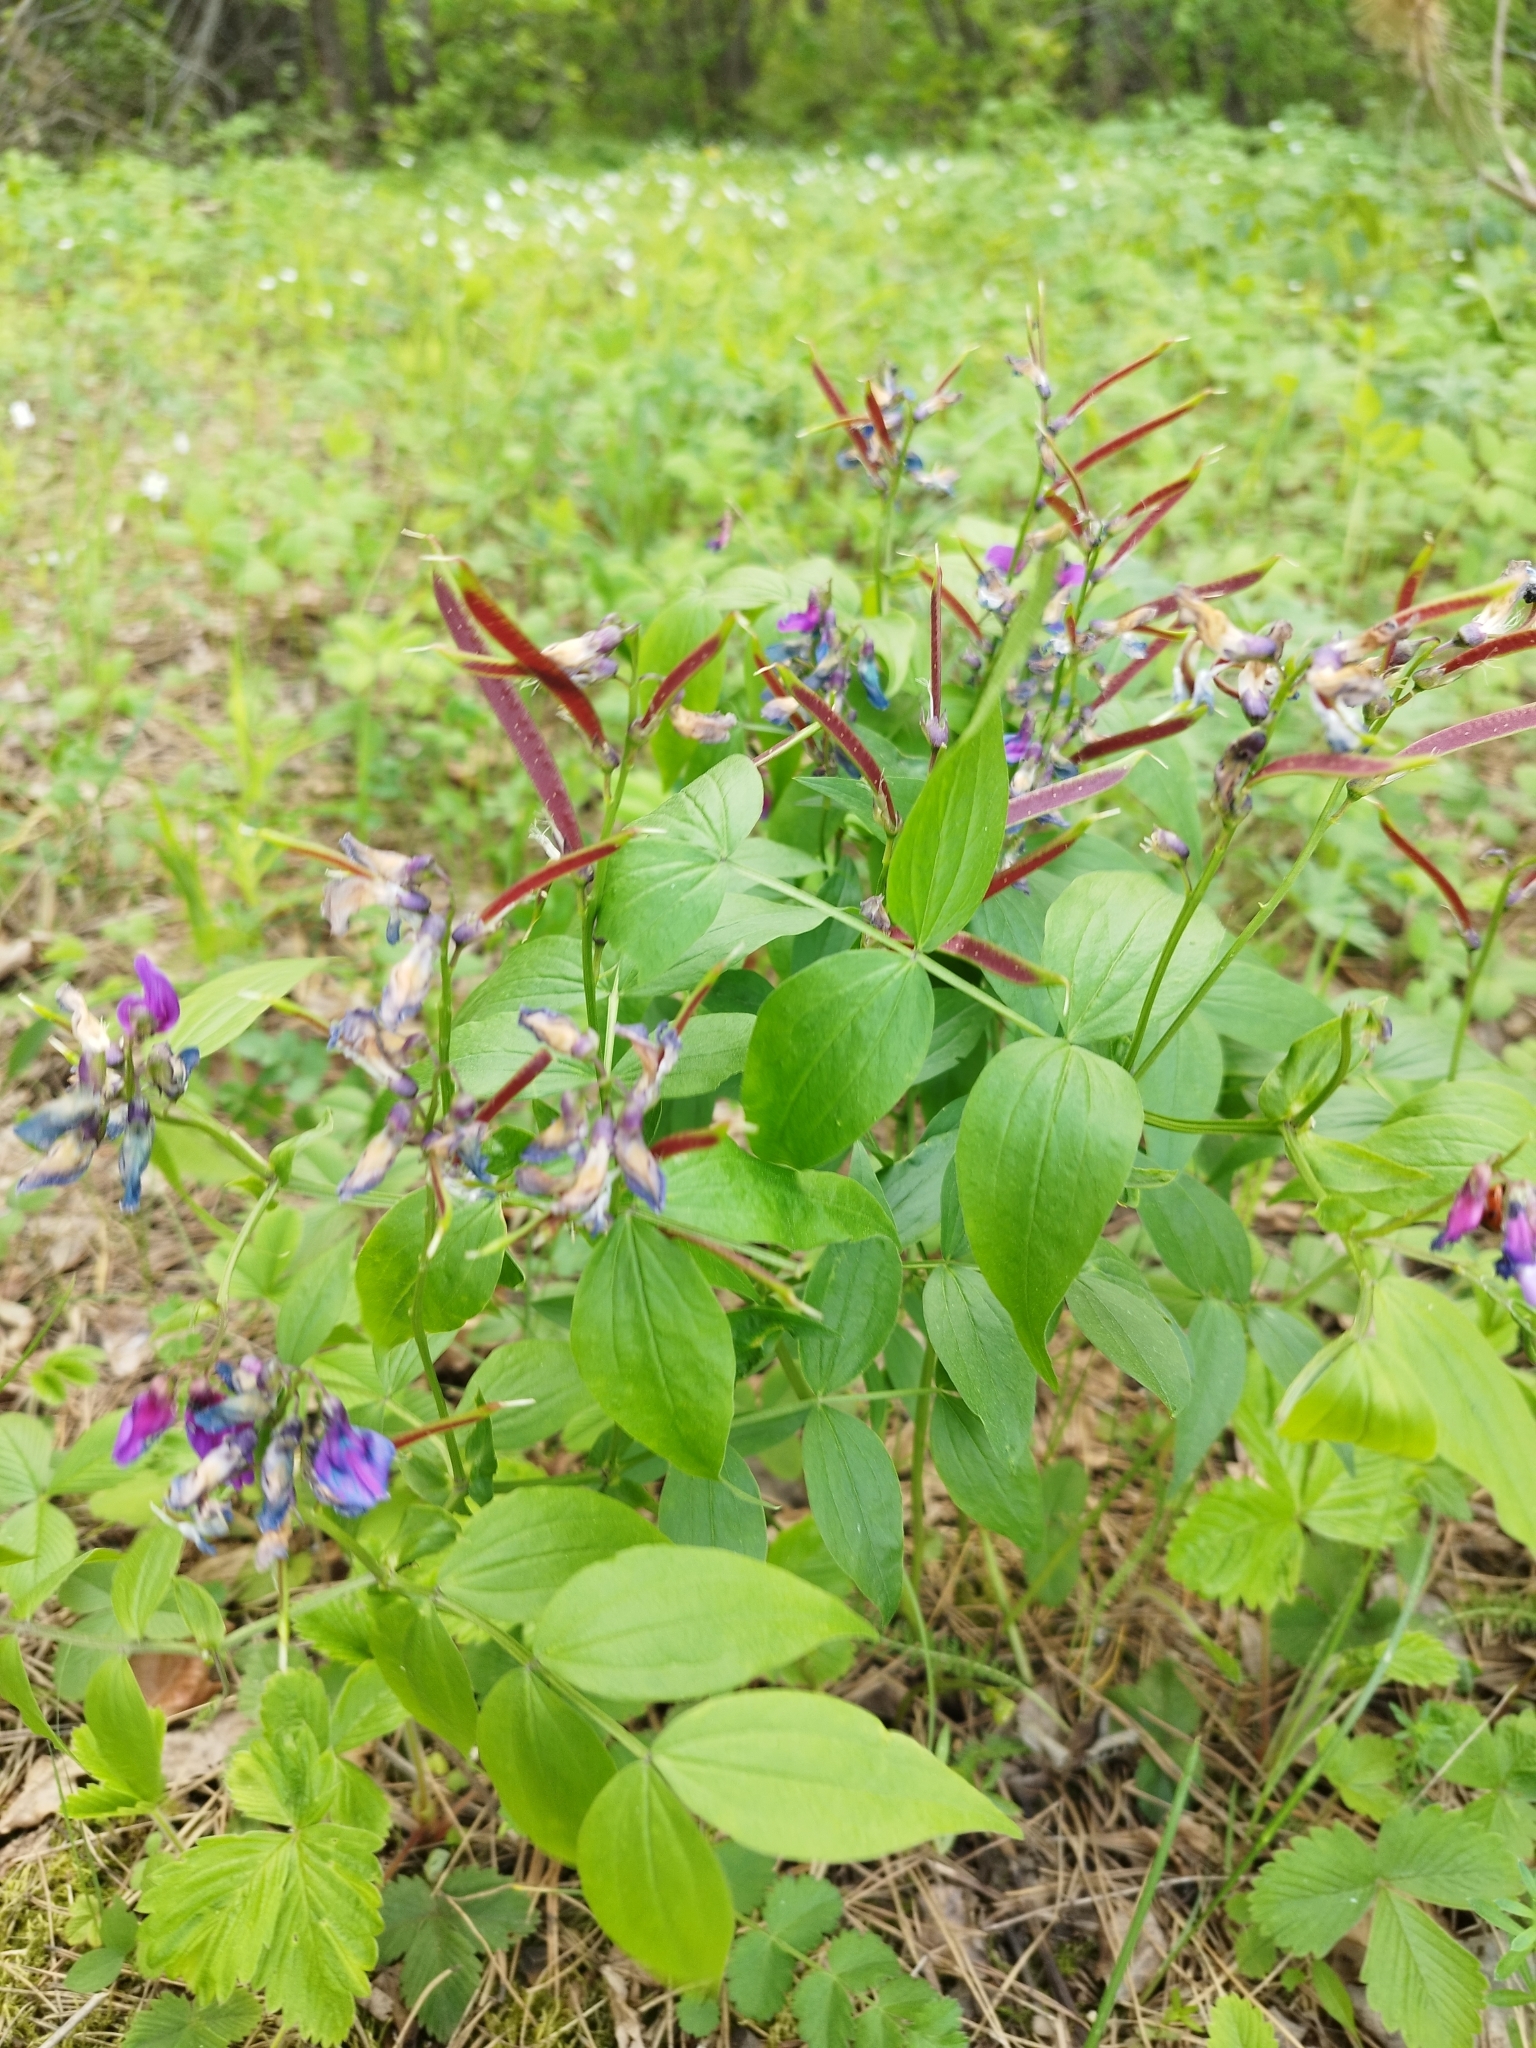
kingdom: Plantae
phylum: Tracheophyta
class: Magnoliopsida
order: Fabales
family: Fabaceae
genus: Lathyrus
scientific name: Lathyrus vernus
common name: Spring pea
